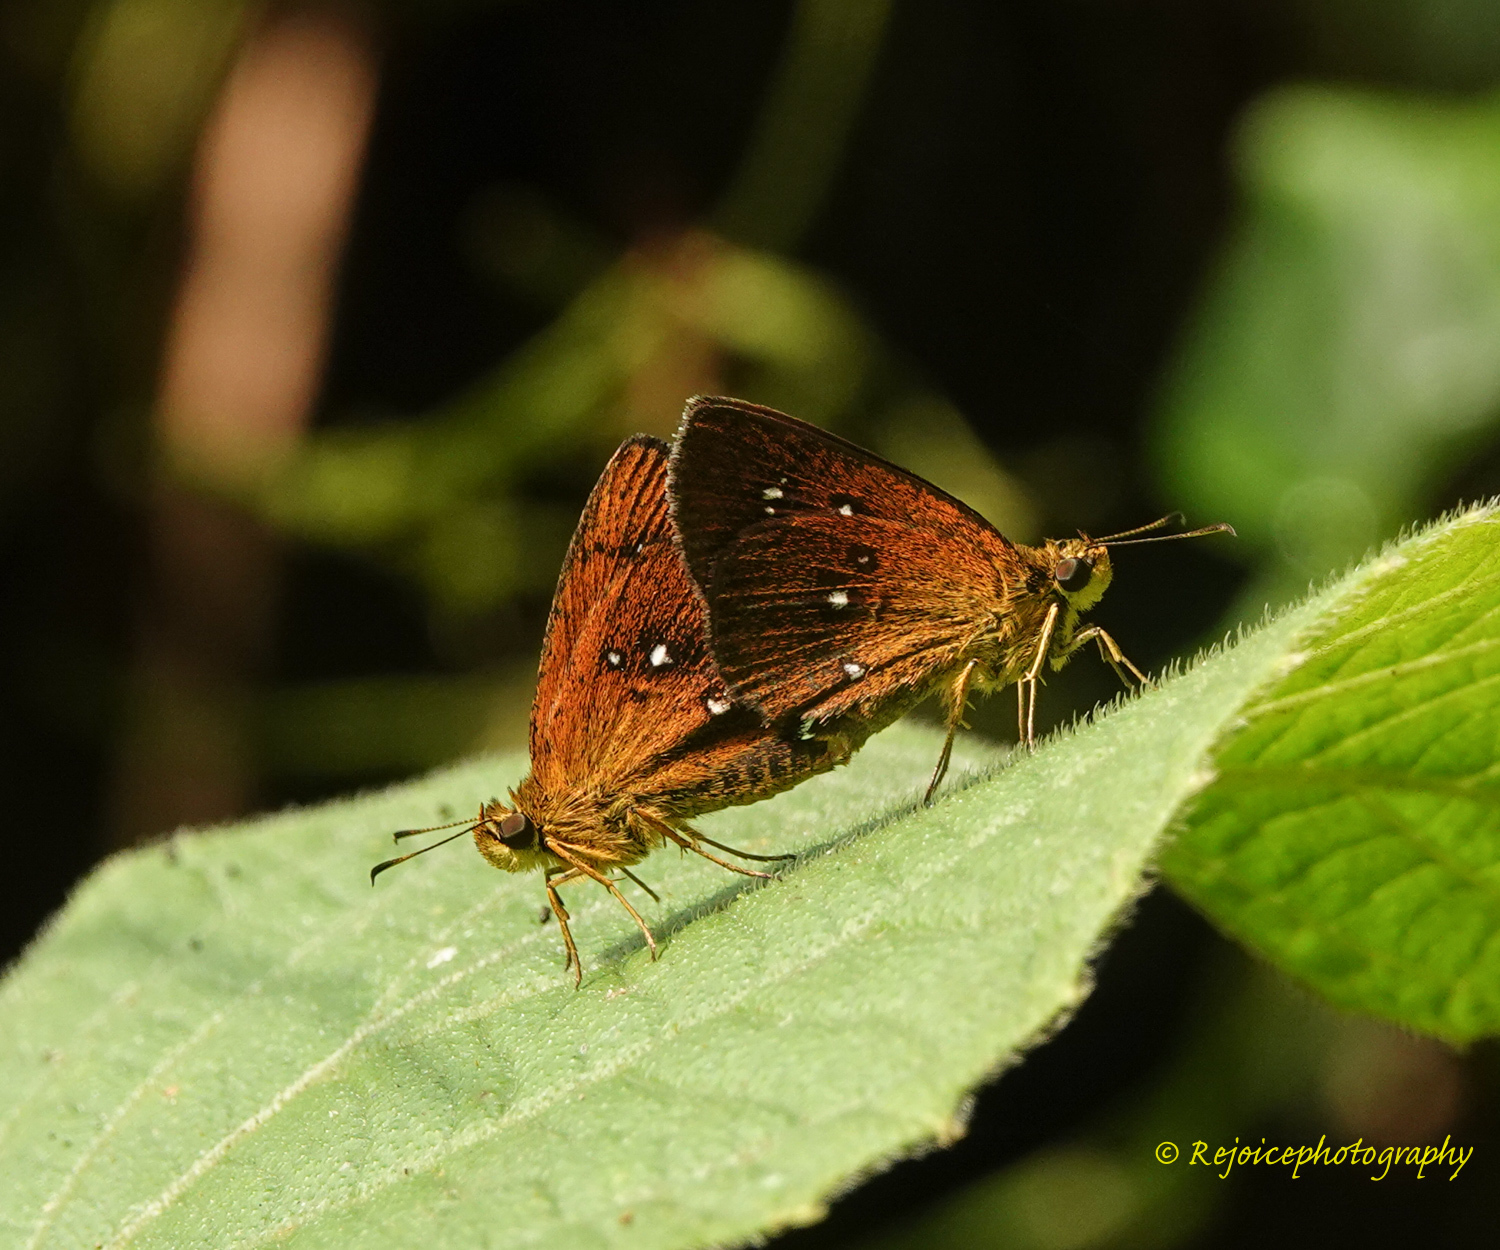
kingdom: Animalia
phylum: Arthropoda
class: Insecta
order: Lepidoptera
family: Hesperiidae
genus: Iambrix
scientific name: Iambrix salsala
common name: Chestnut bob
